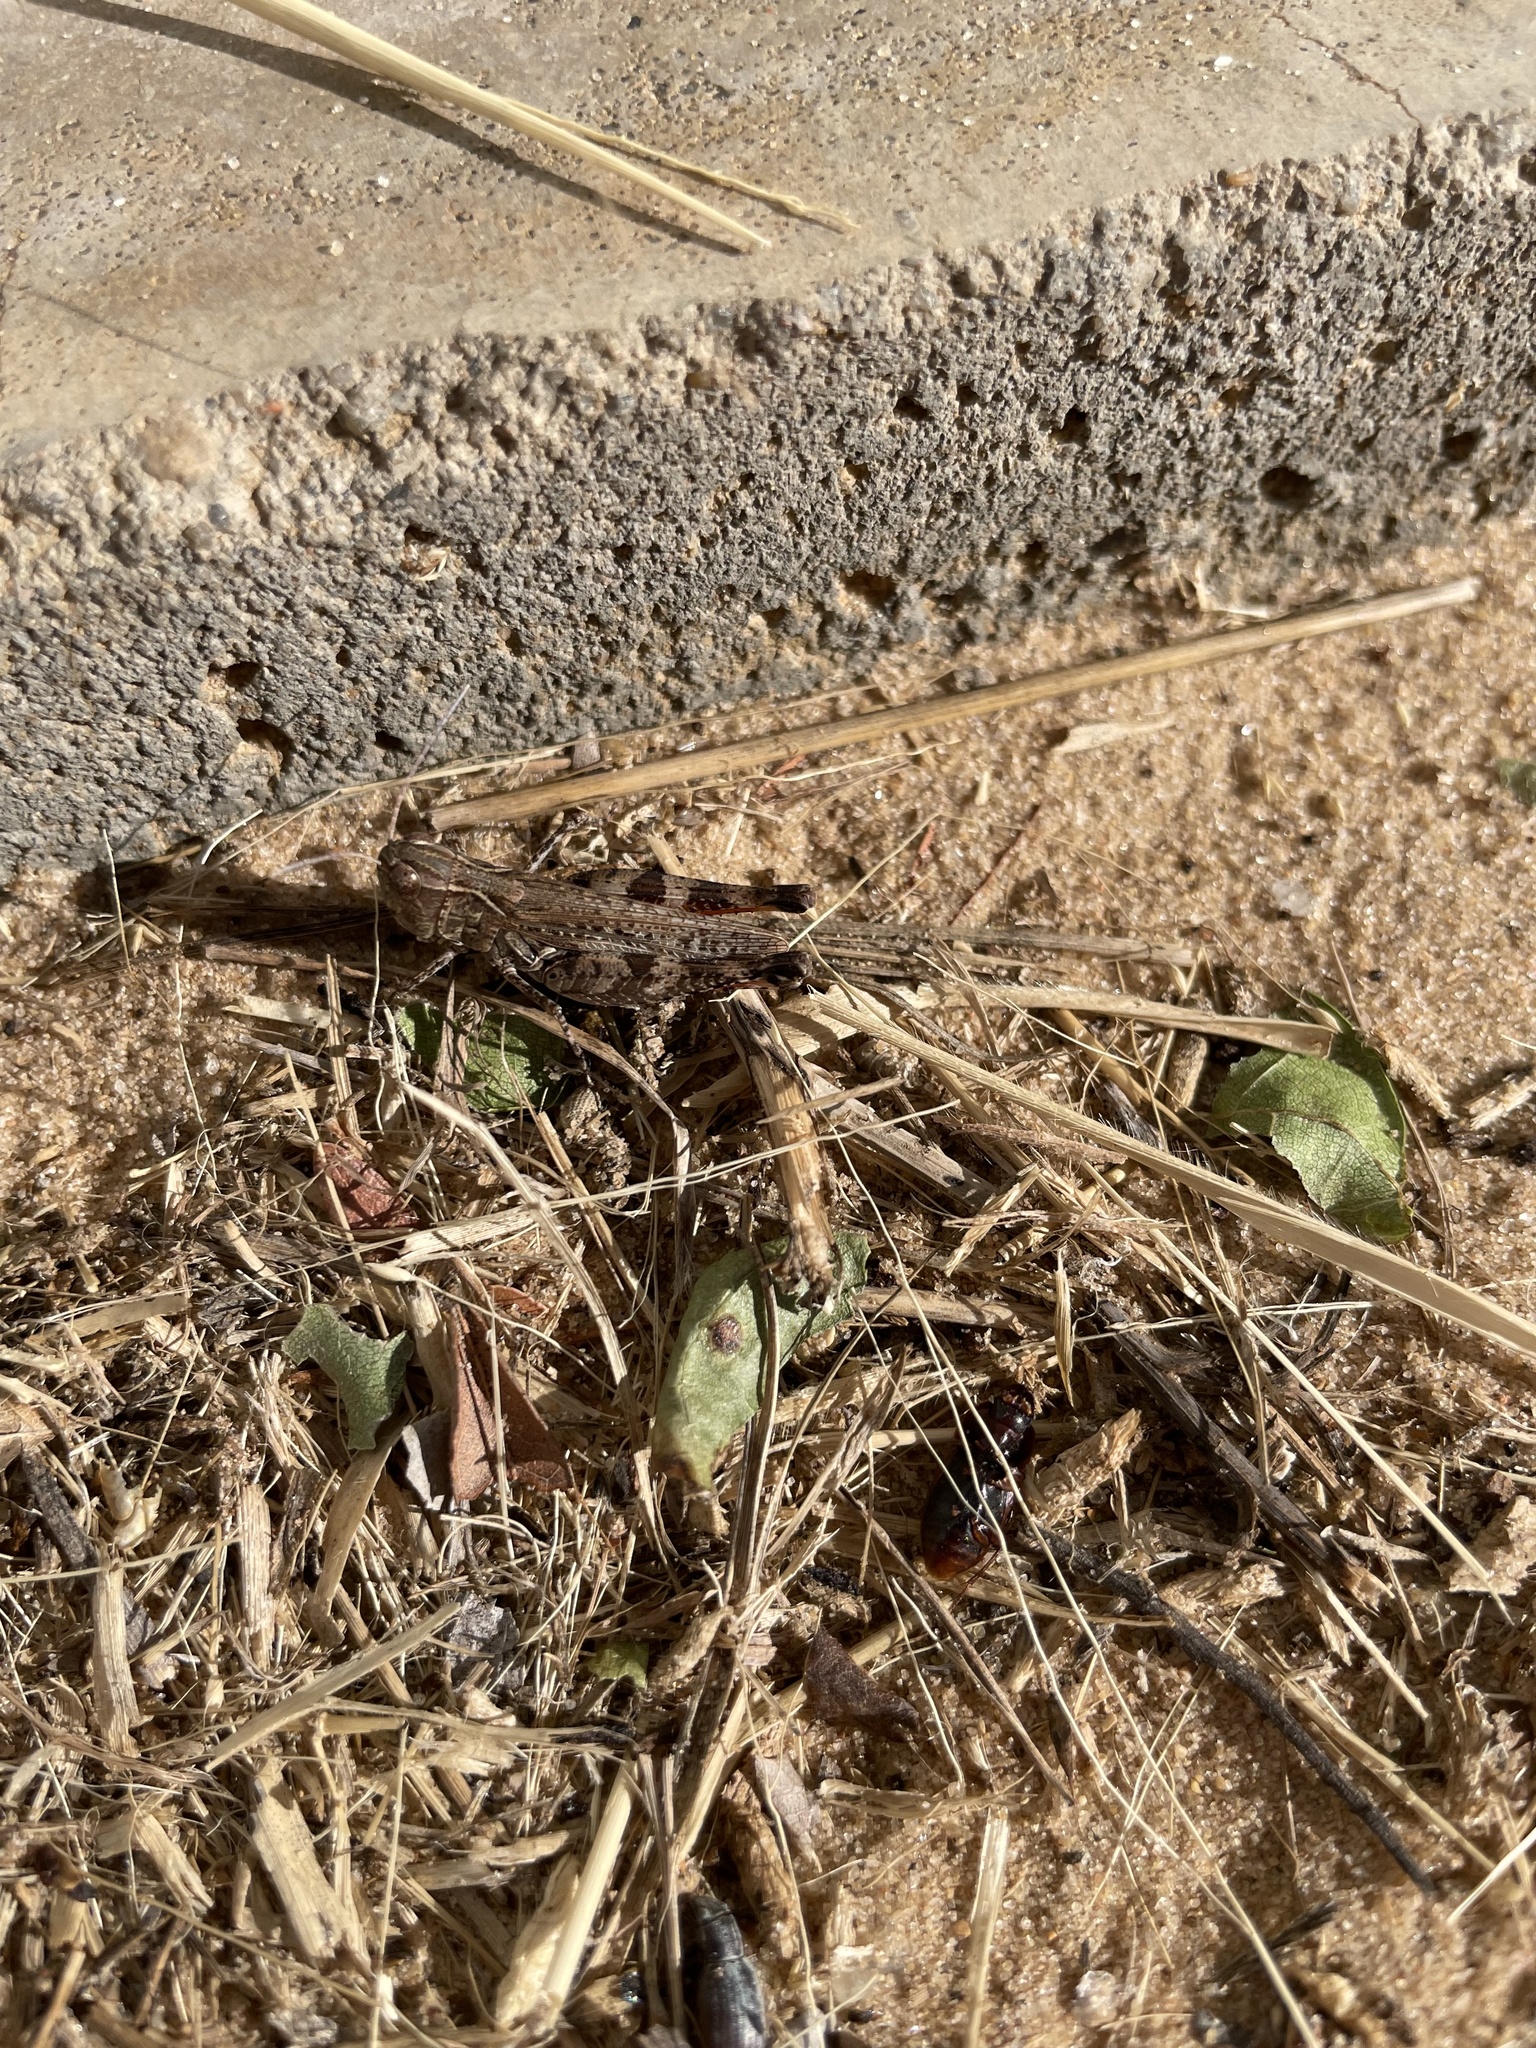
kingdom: Animalia
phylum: Arthropoda
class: Insecta
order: Orthoptera
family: Acrididae
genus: Ageneotettix
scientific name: Ageneotettix deorum
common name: White-whiskered grasshopper
